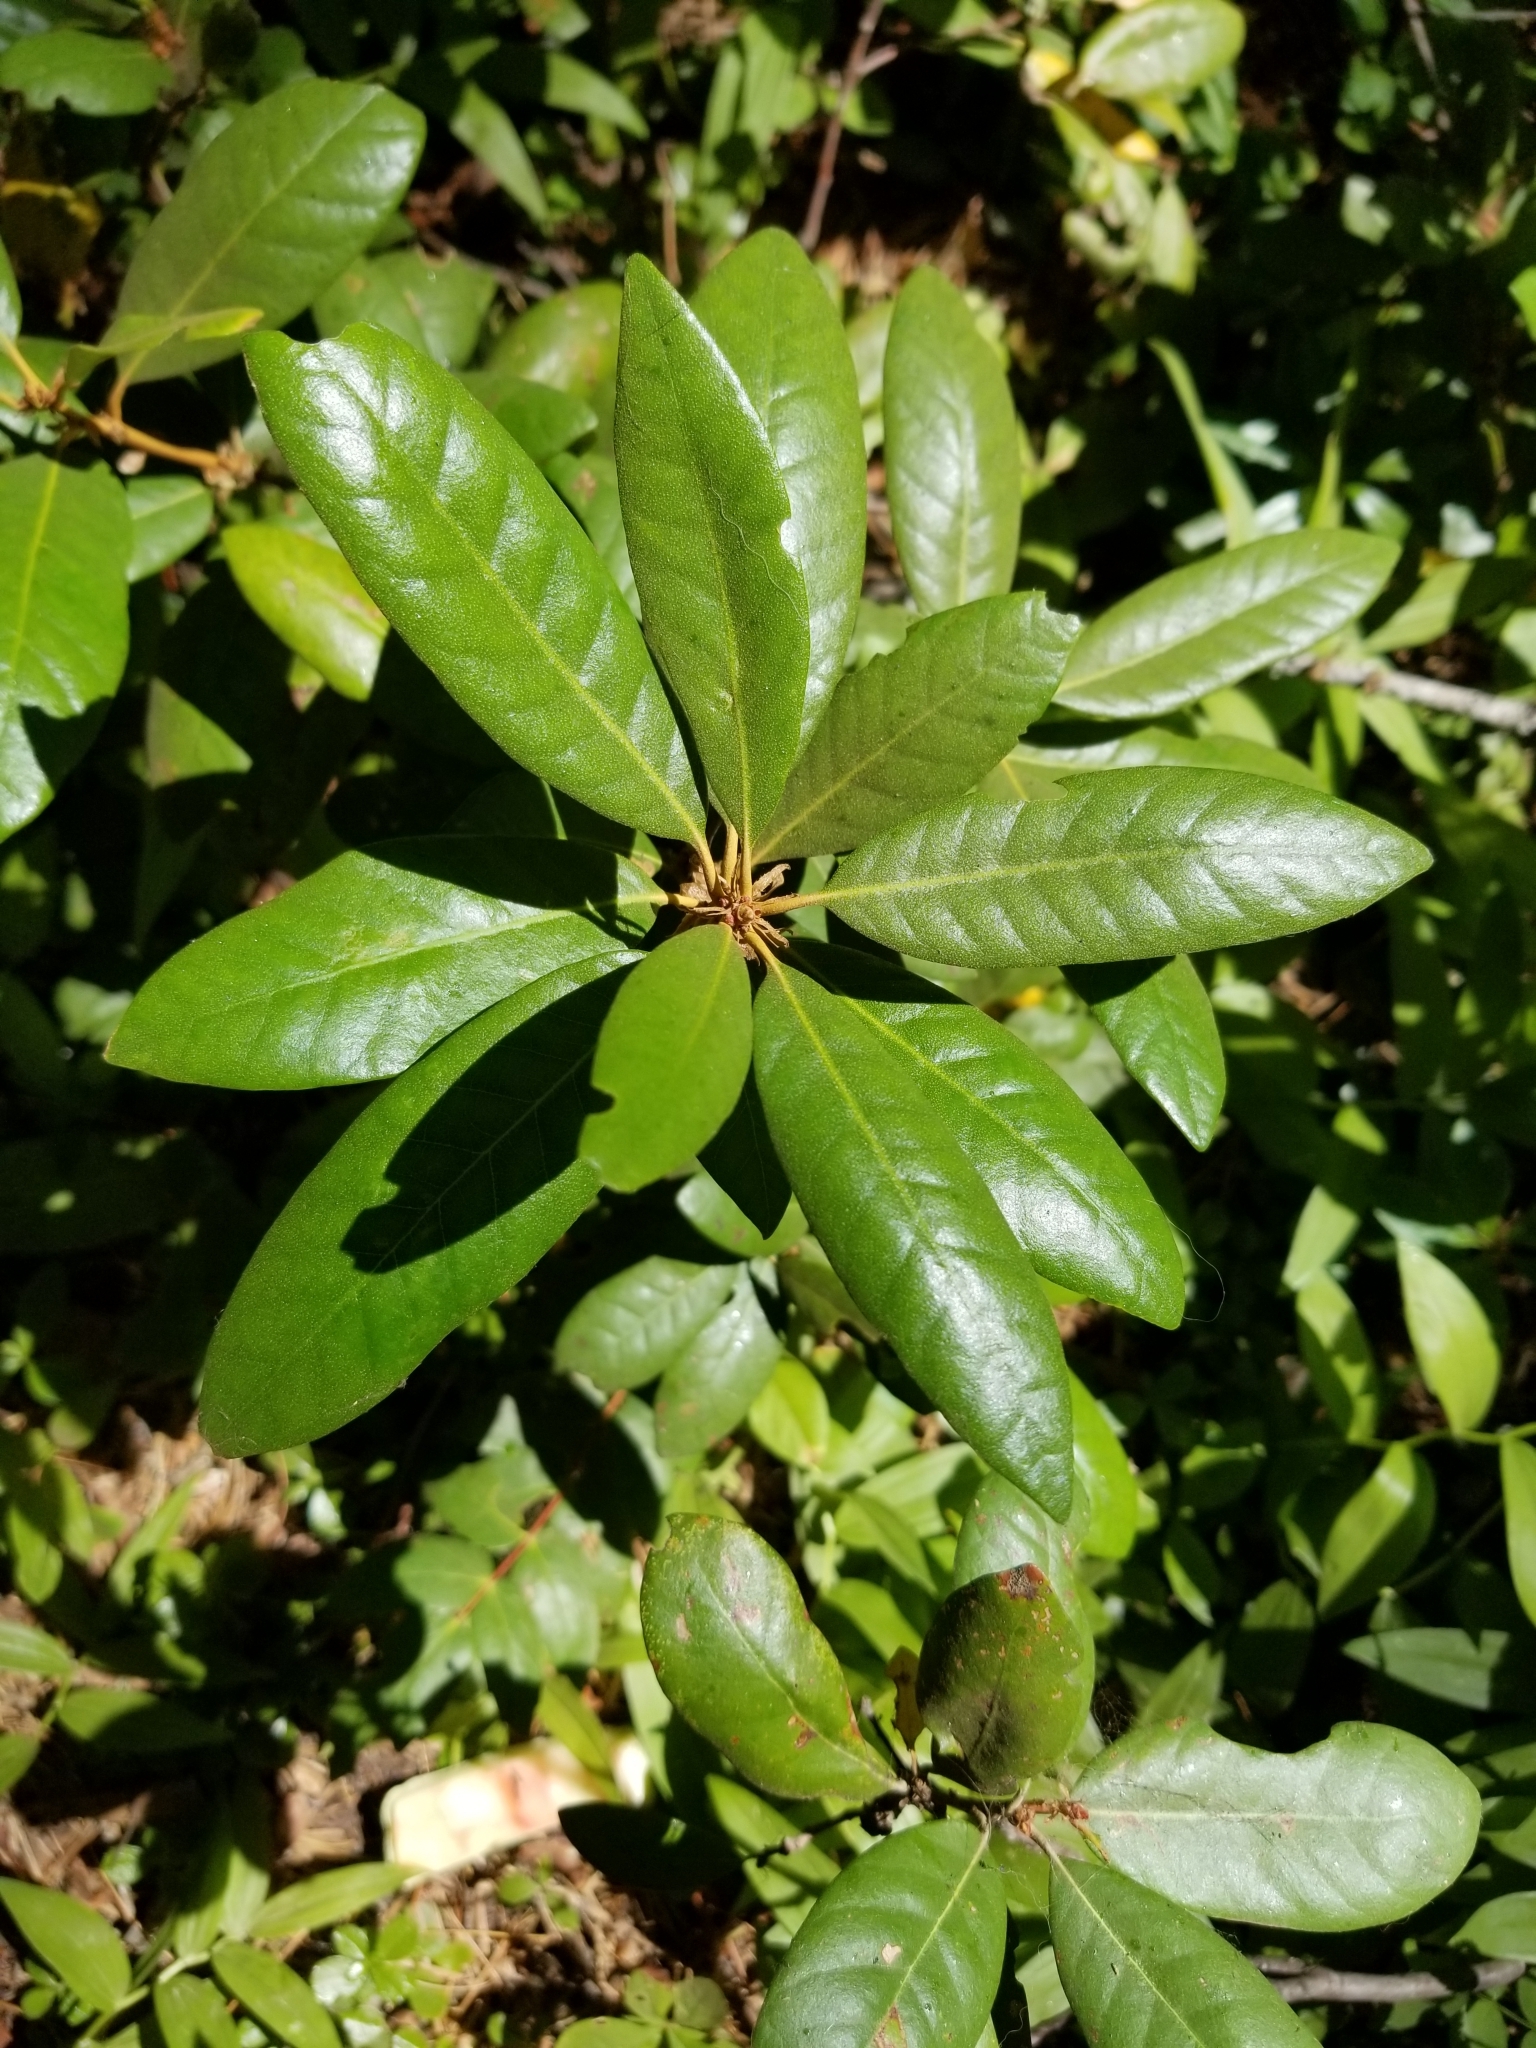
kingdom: Plantae
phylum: Tracheophyta
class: Magnoliopsida
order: Fagales
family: Fagaceae
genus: Chrysolepis
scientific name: Chrysolepis chrysophylla
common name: Giant chinquapin
